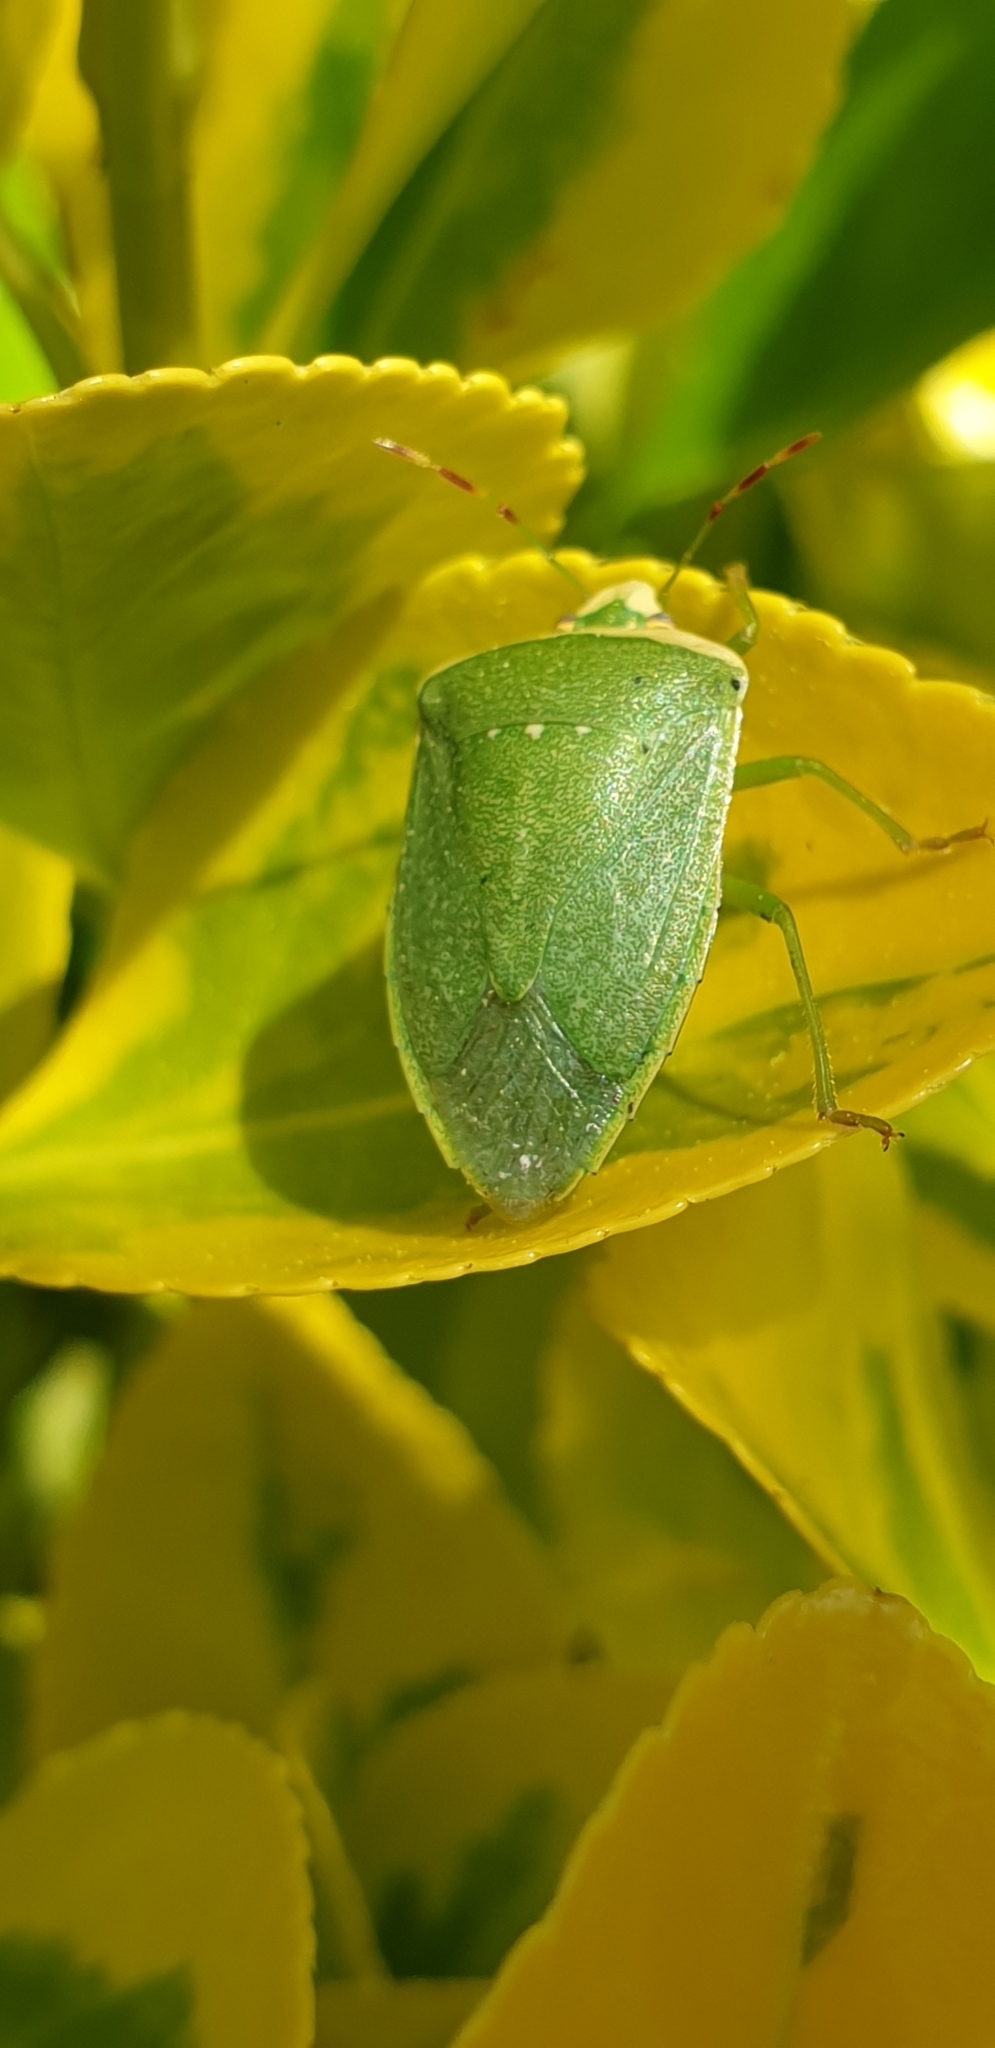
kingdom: Animalia
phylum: Arthropoda
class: Insecta
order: Hemiptera
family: Pentatomidae
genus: Nezara
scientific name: Nezara viridula
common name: Southern green stink bug
